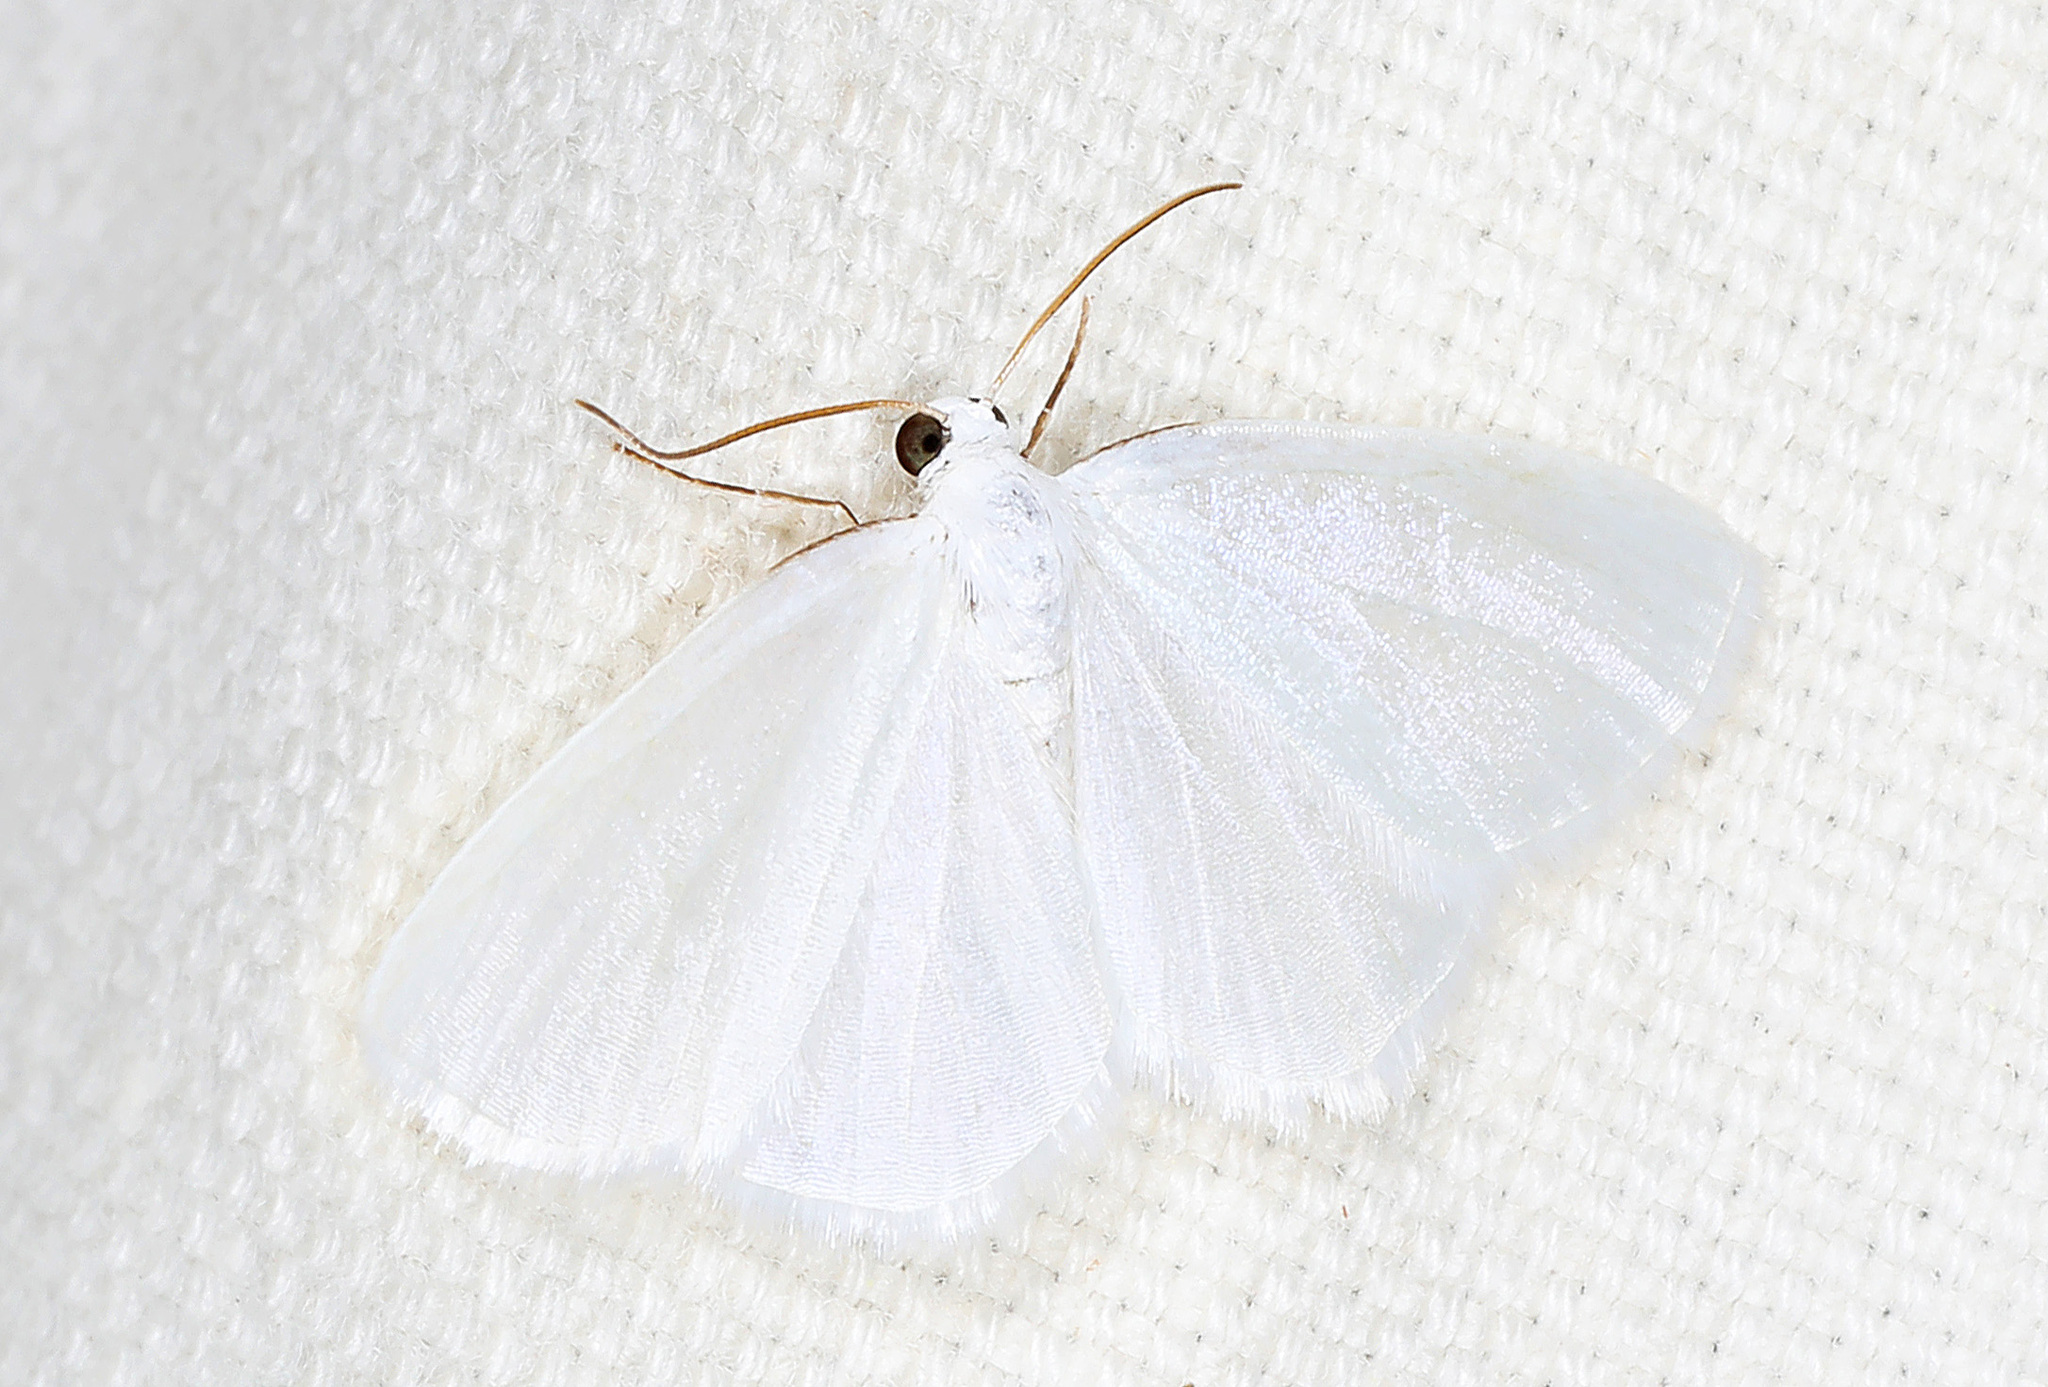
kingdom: Animalia
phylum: Arthropoda
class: Insecta
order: Lepidoptera
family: Geometridae
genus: Lomographa
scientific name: Lomographa vestaliata
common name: White spring moth
